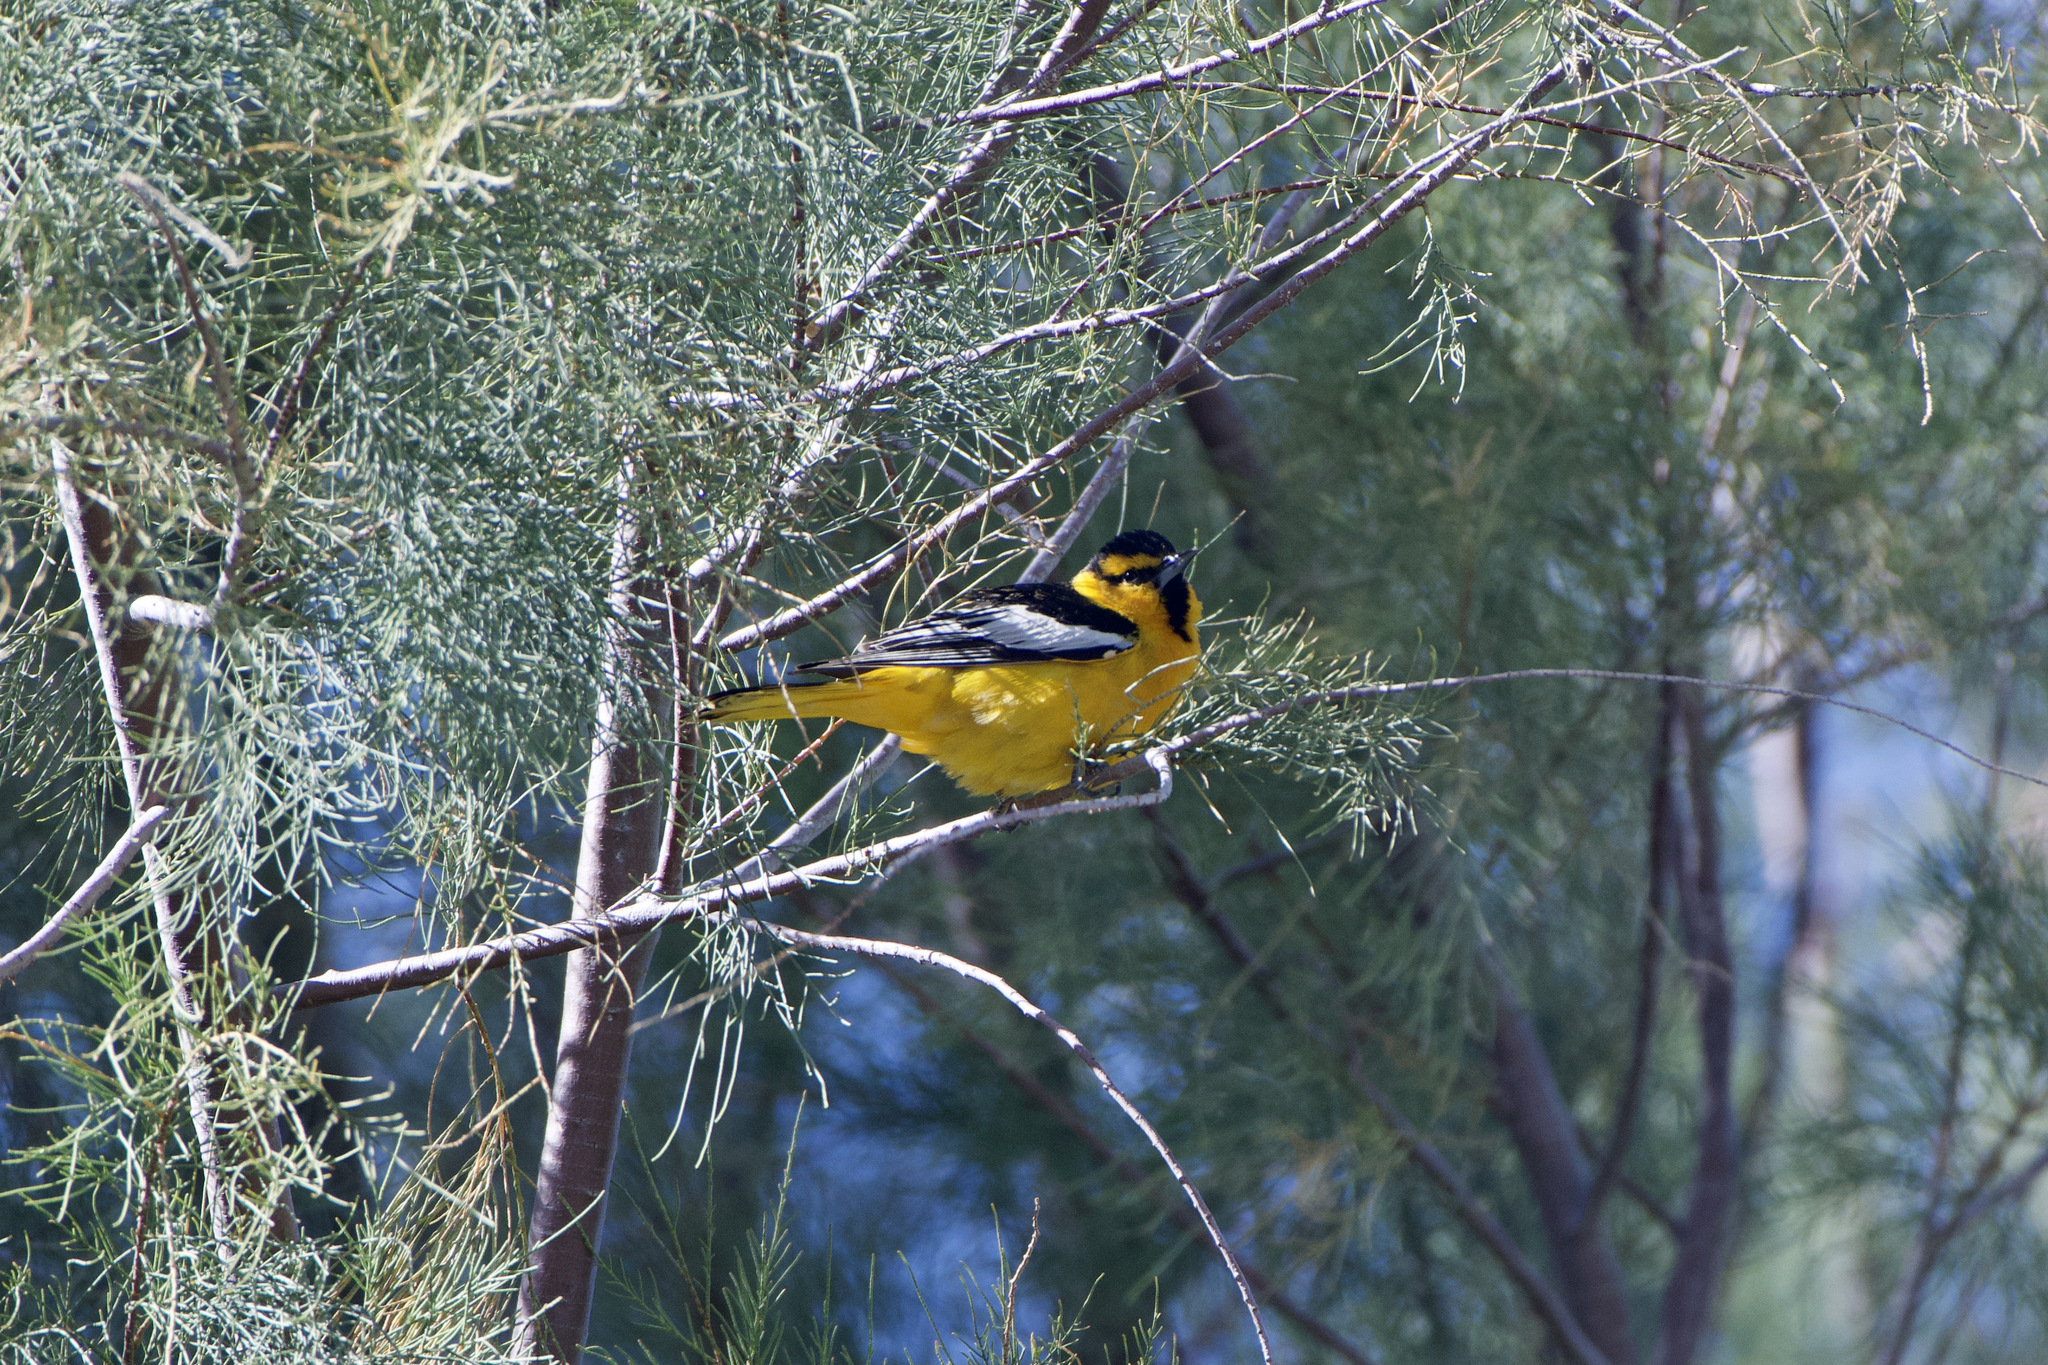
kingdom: Animalia
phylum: Chordata
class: Aves
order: Passeriformes
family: Icteridae
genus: Icterus
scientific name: Icterus bullockii
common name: Bullock's oriole
